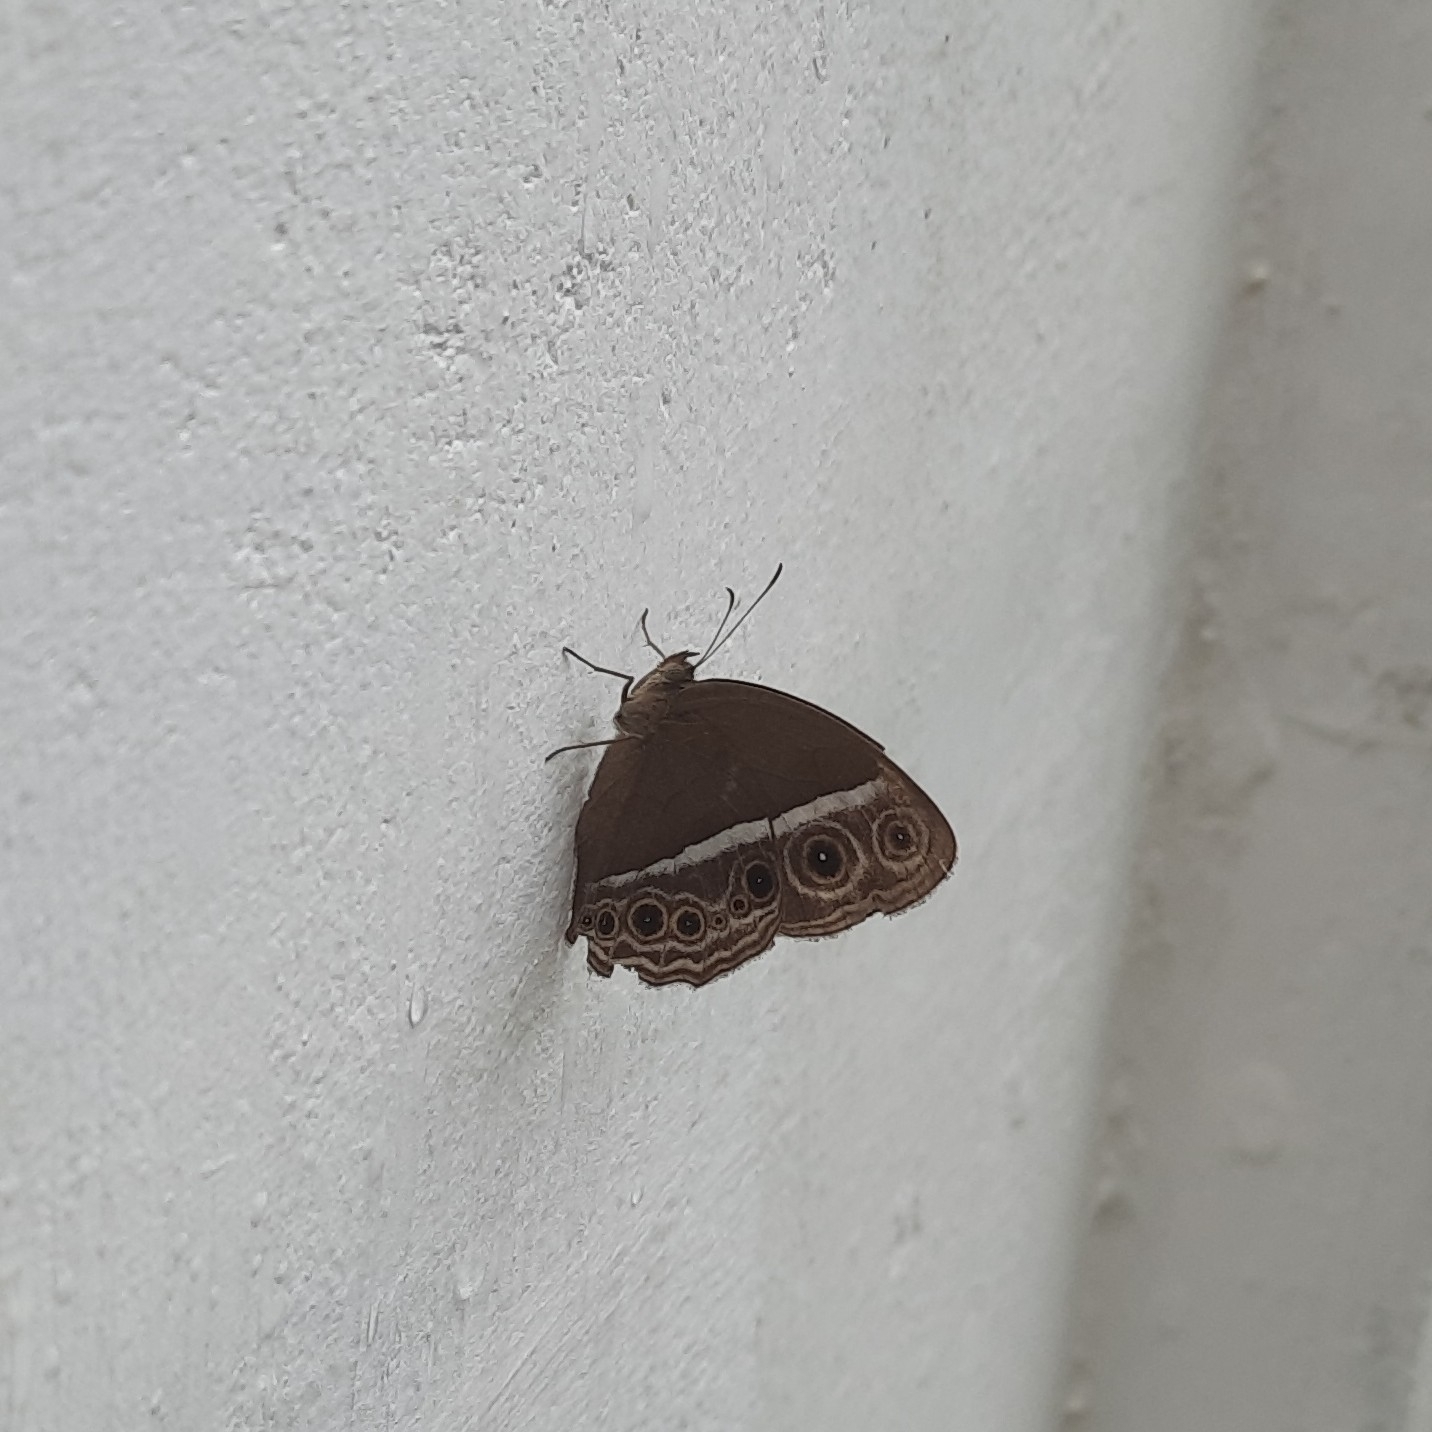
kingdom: Animalia
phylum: Arthropoda
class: Insecta
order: Lepidoptera
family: Nymphalidae
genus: Mycalesis
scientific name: Mycalesis mineus
